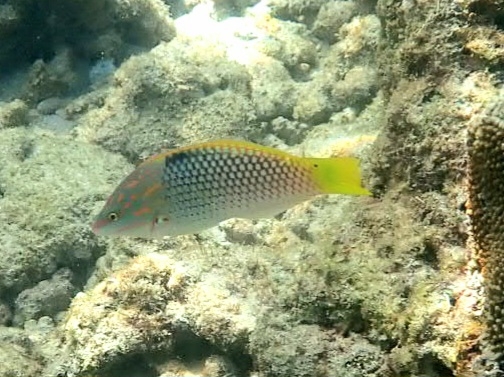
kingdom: Animalia
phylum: Chordata
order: Perciformes
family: Labridae
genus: Halichoeres
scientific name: Halichoeres hortulanus
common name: Checkerboard wrasse
